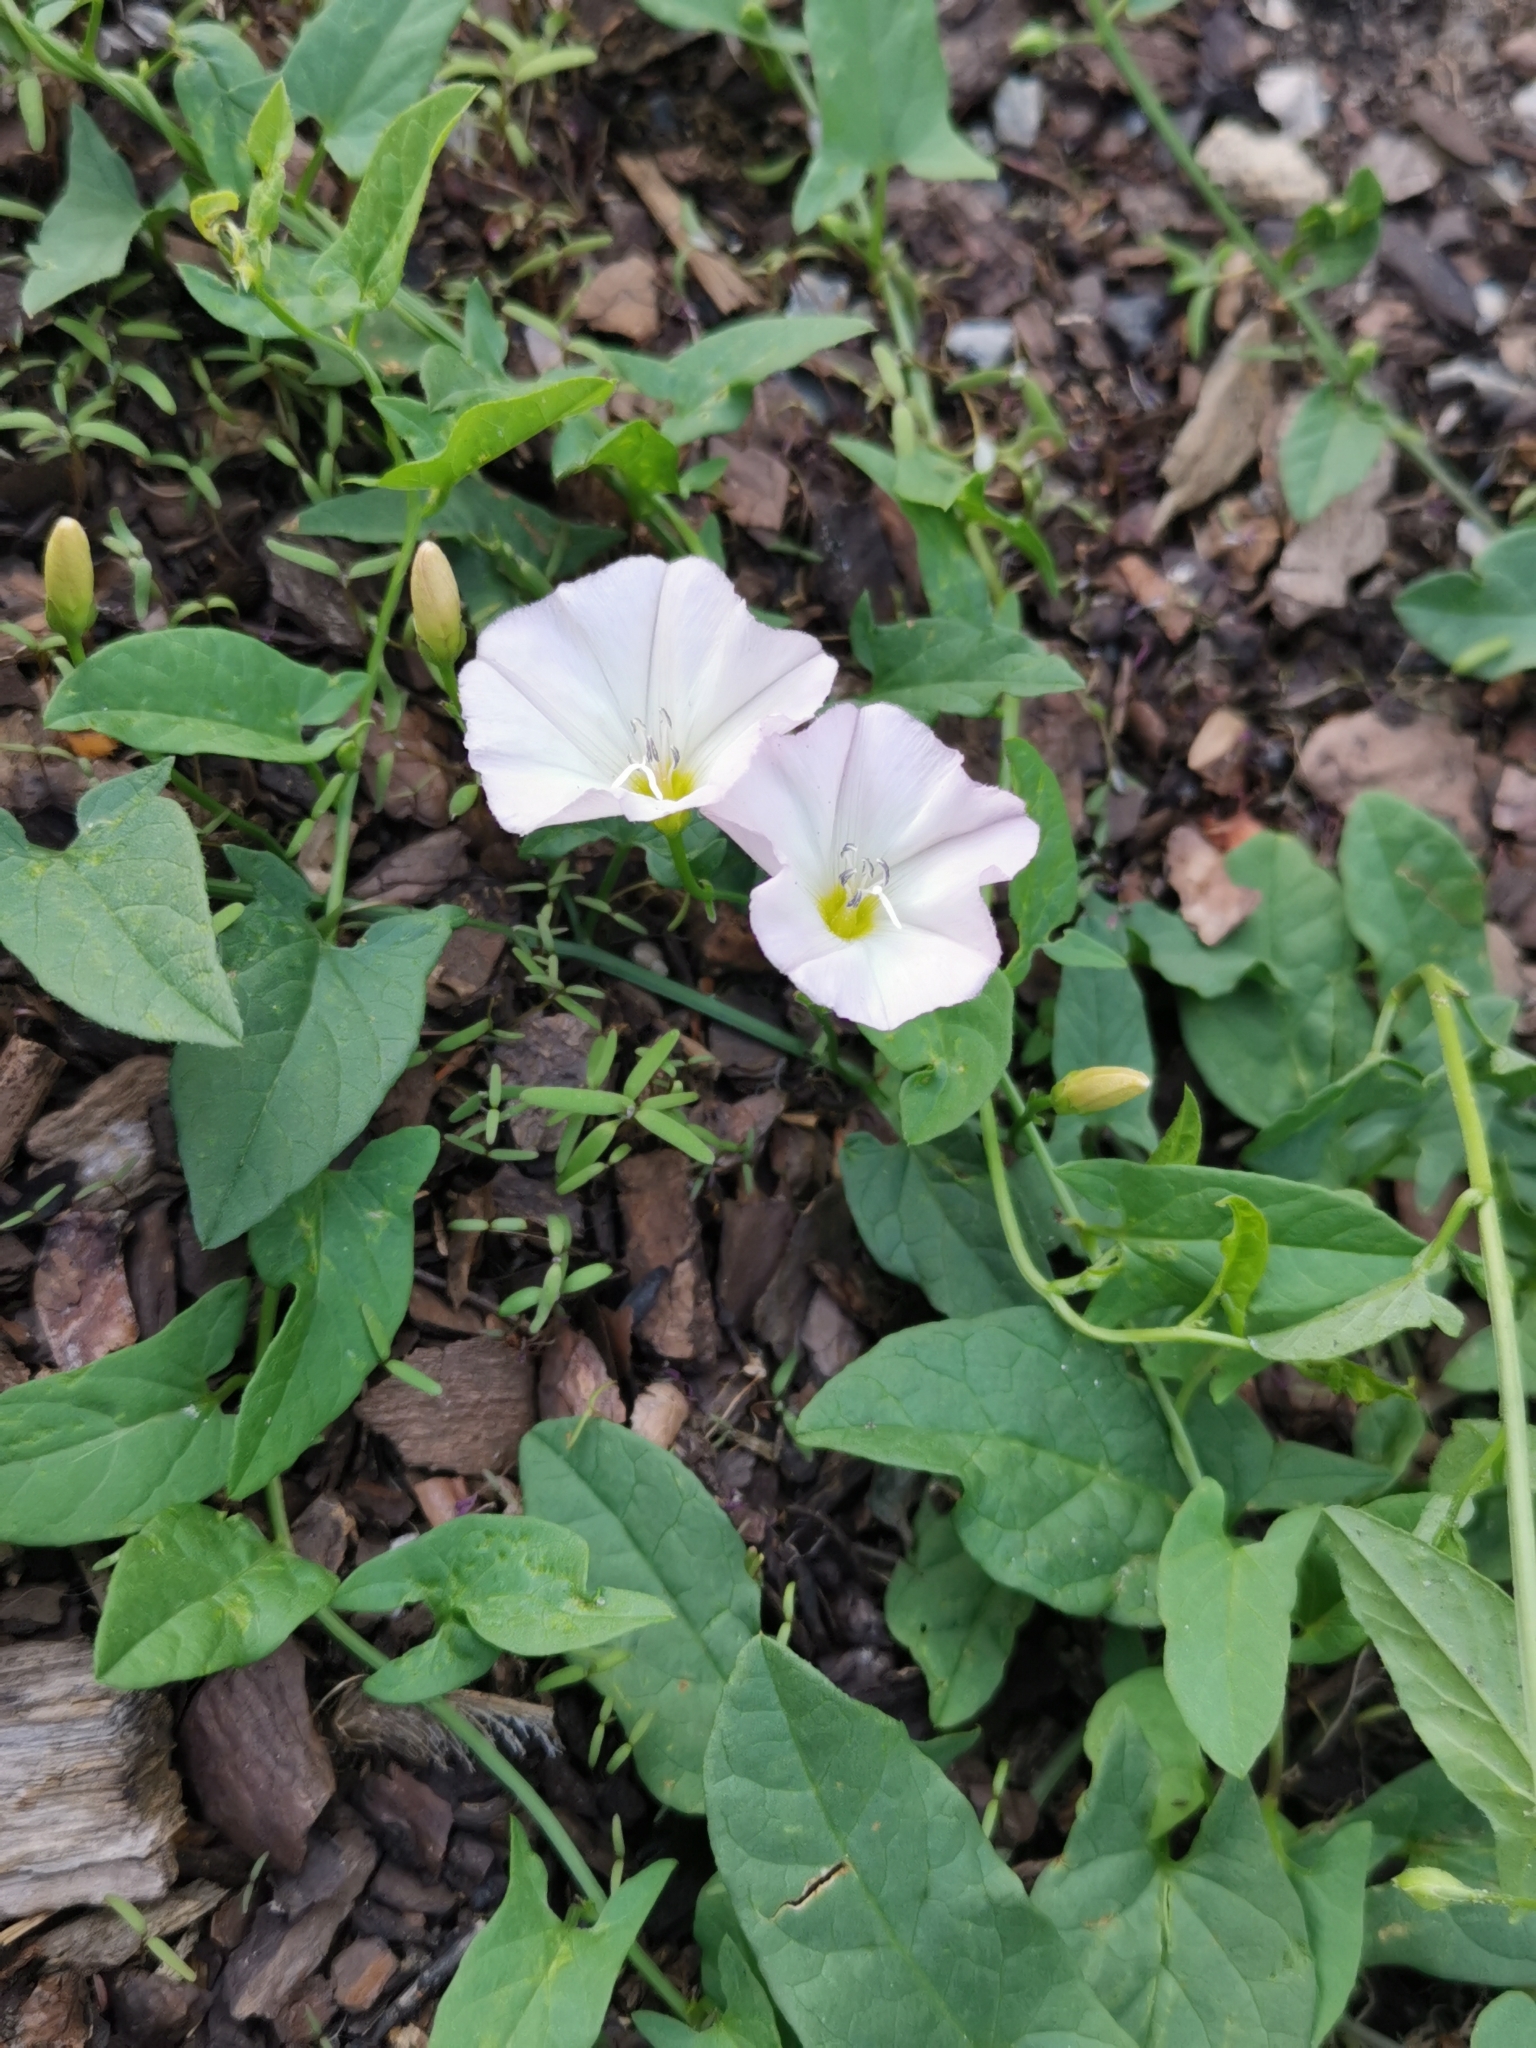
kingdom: Plantae
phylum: Tracheophyta
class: Magnoliopsida
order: Solanales
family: Convolvulaceae
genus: Convolvulus
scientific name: Convolvulus arvensis
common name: Field bindweed
